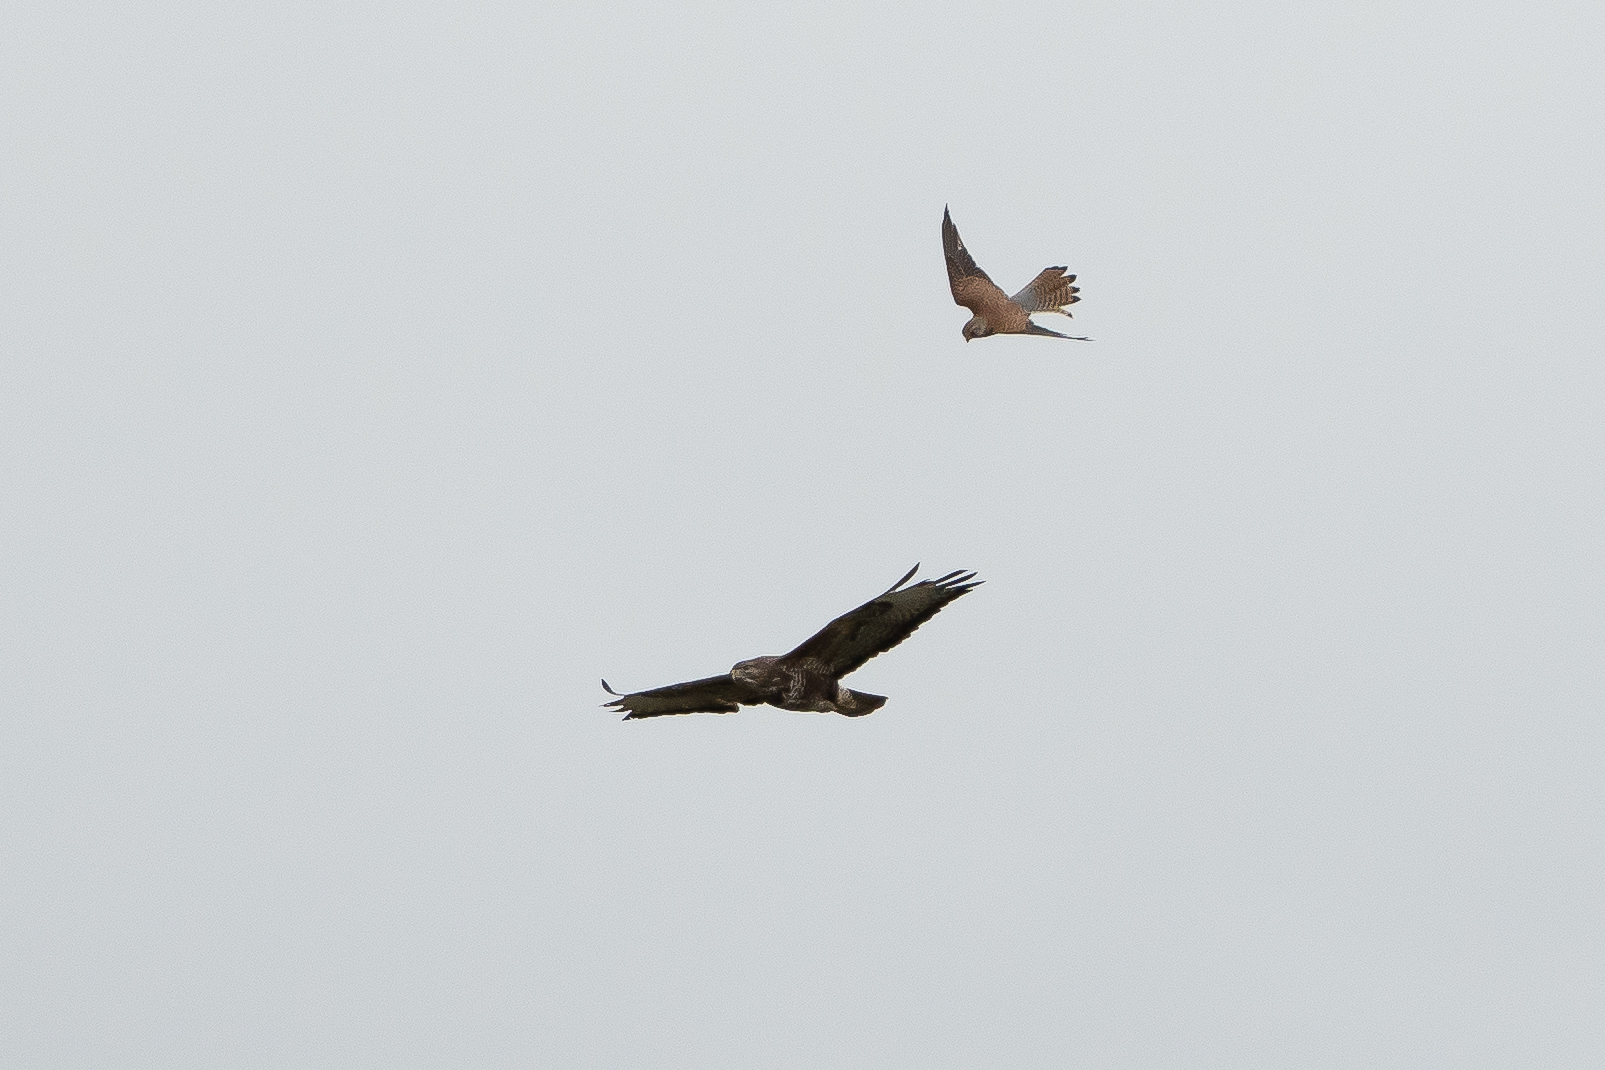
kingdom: Animalia
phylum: Chordata
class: Aves
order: Accipitriformes
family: Accipitridae
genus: Buteo
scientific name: Buteo buteo
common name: Common buzzard
